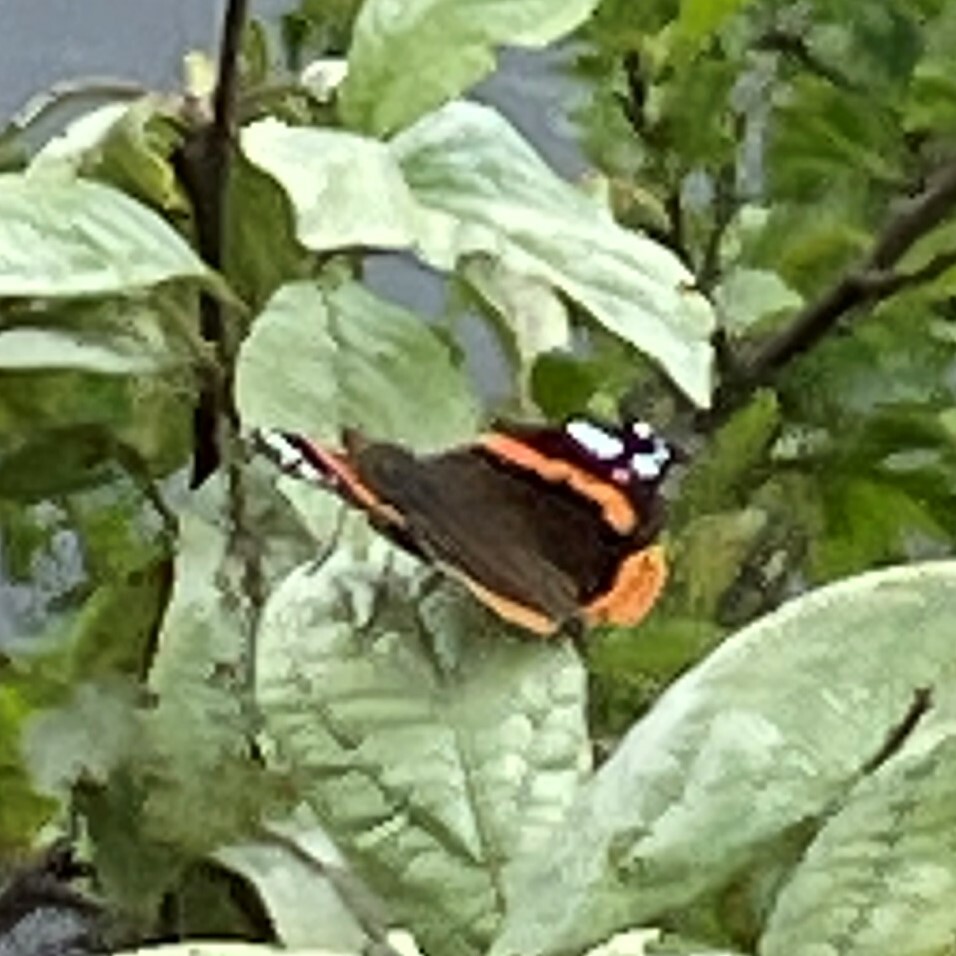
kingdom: Animalia
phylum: Arthropoda
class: Insecta
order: Lepidoptera
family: Nymphalidae
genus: Vanessa
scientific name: Vanessa atalanta
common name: Red admiral
